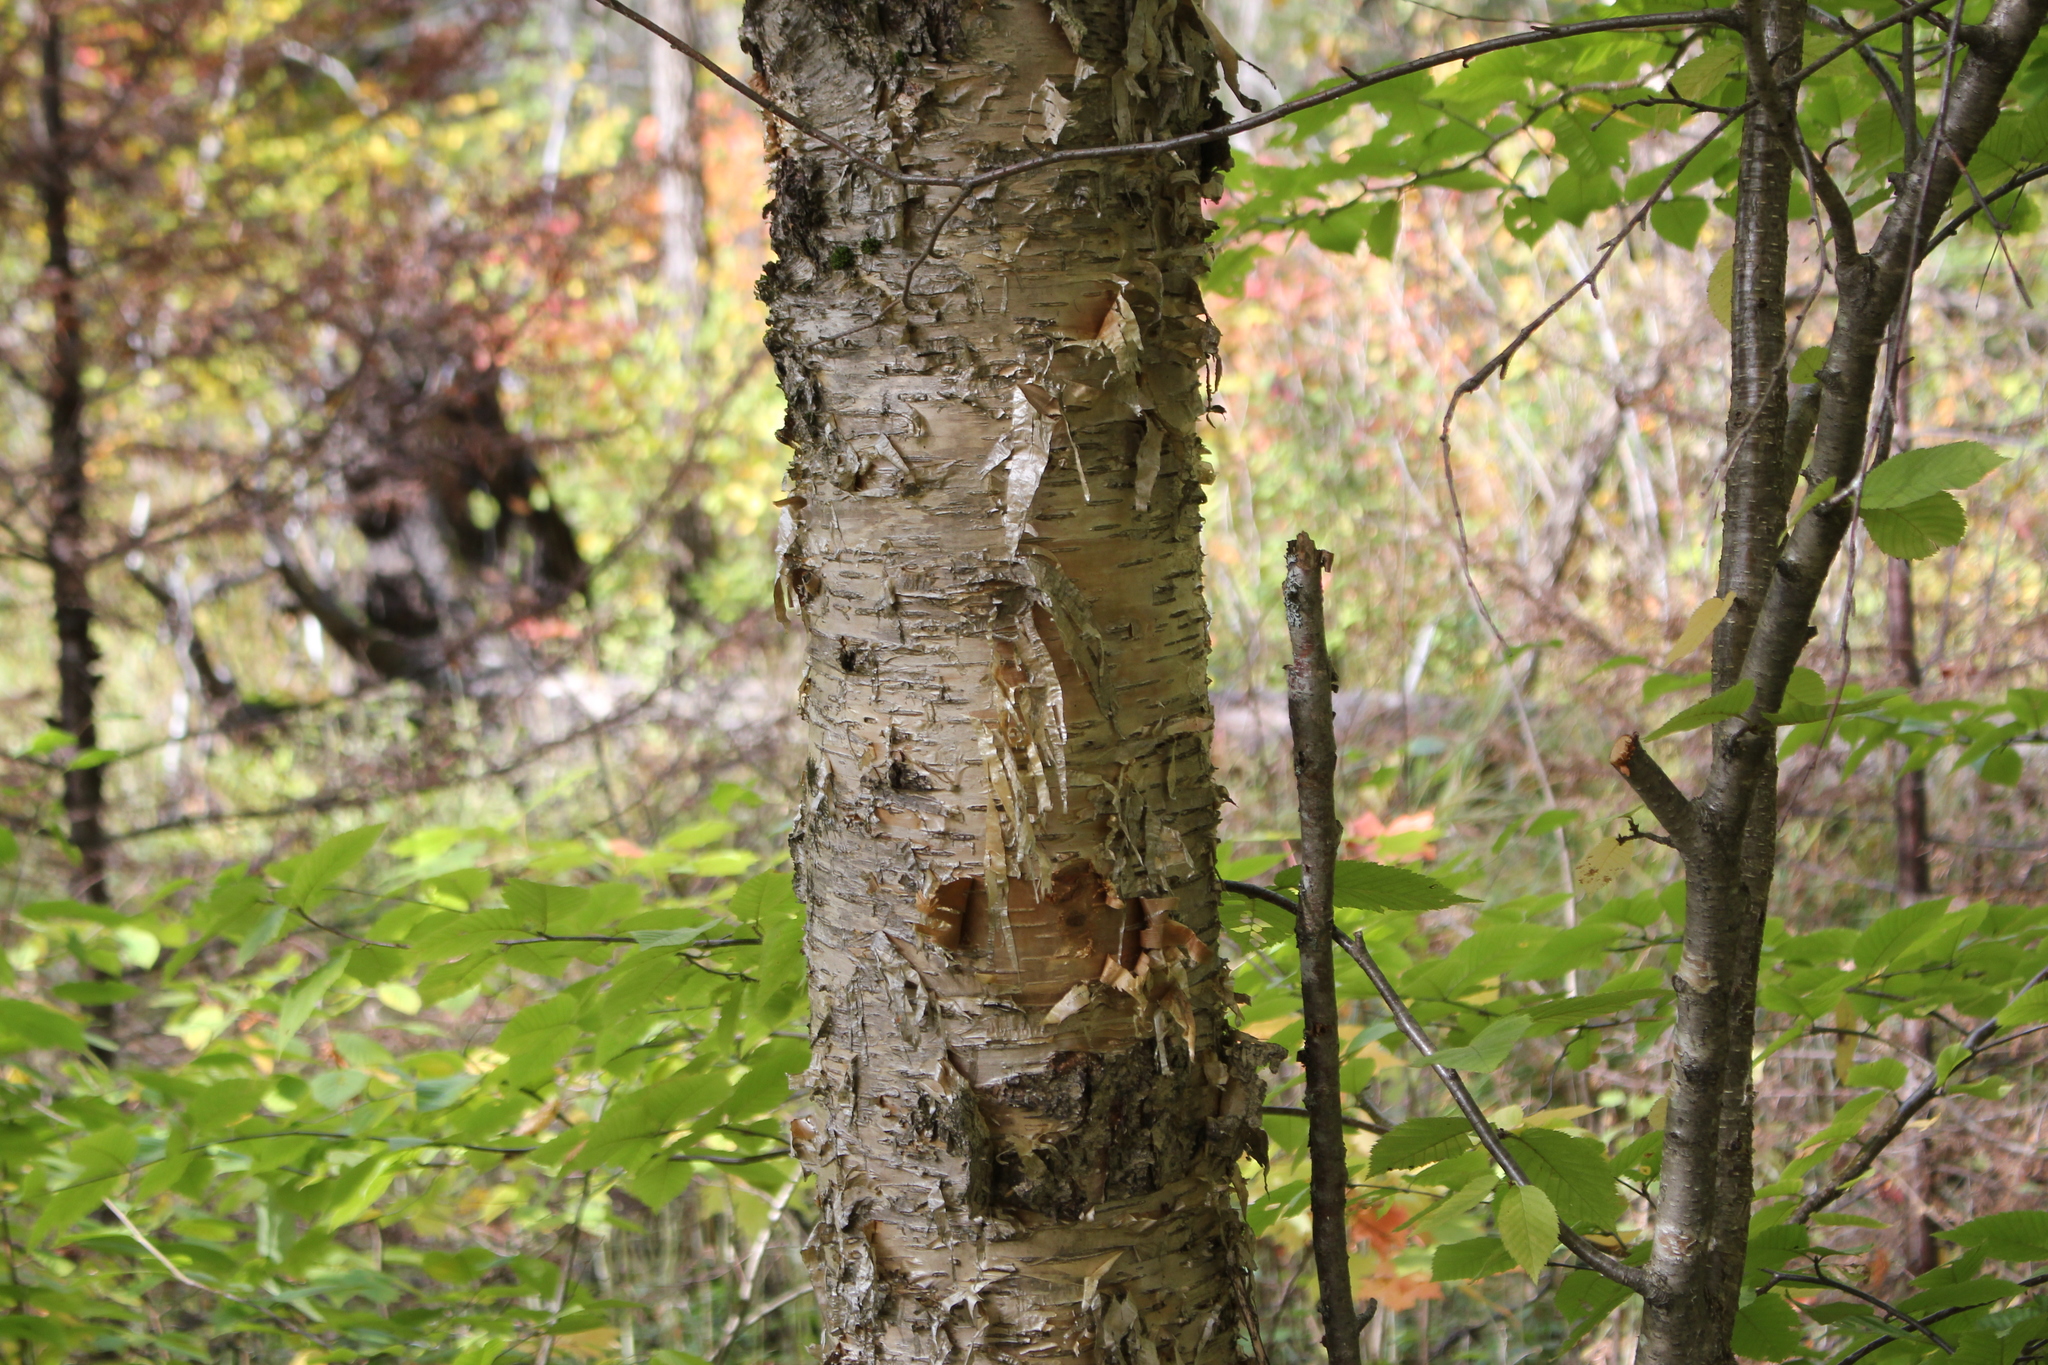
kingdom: Plantae
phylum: Tracheophyta
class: Magnoliopsida
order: Fagales
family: Betulaceae
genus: Betula
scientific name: Betula alleghaniensis
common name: Yellow birch
